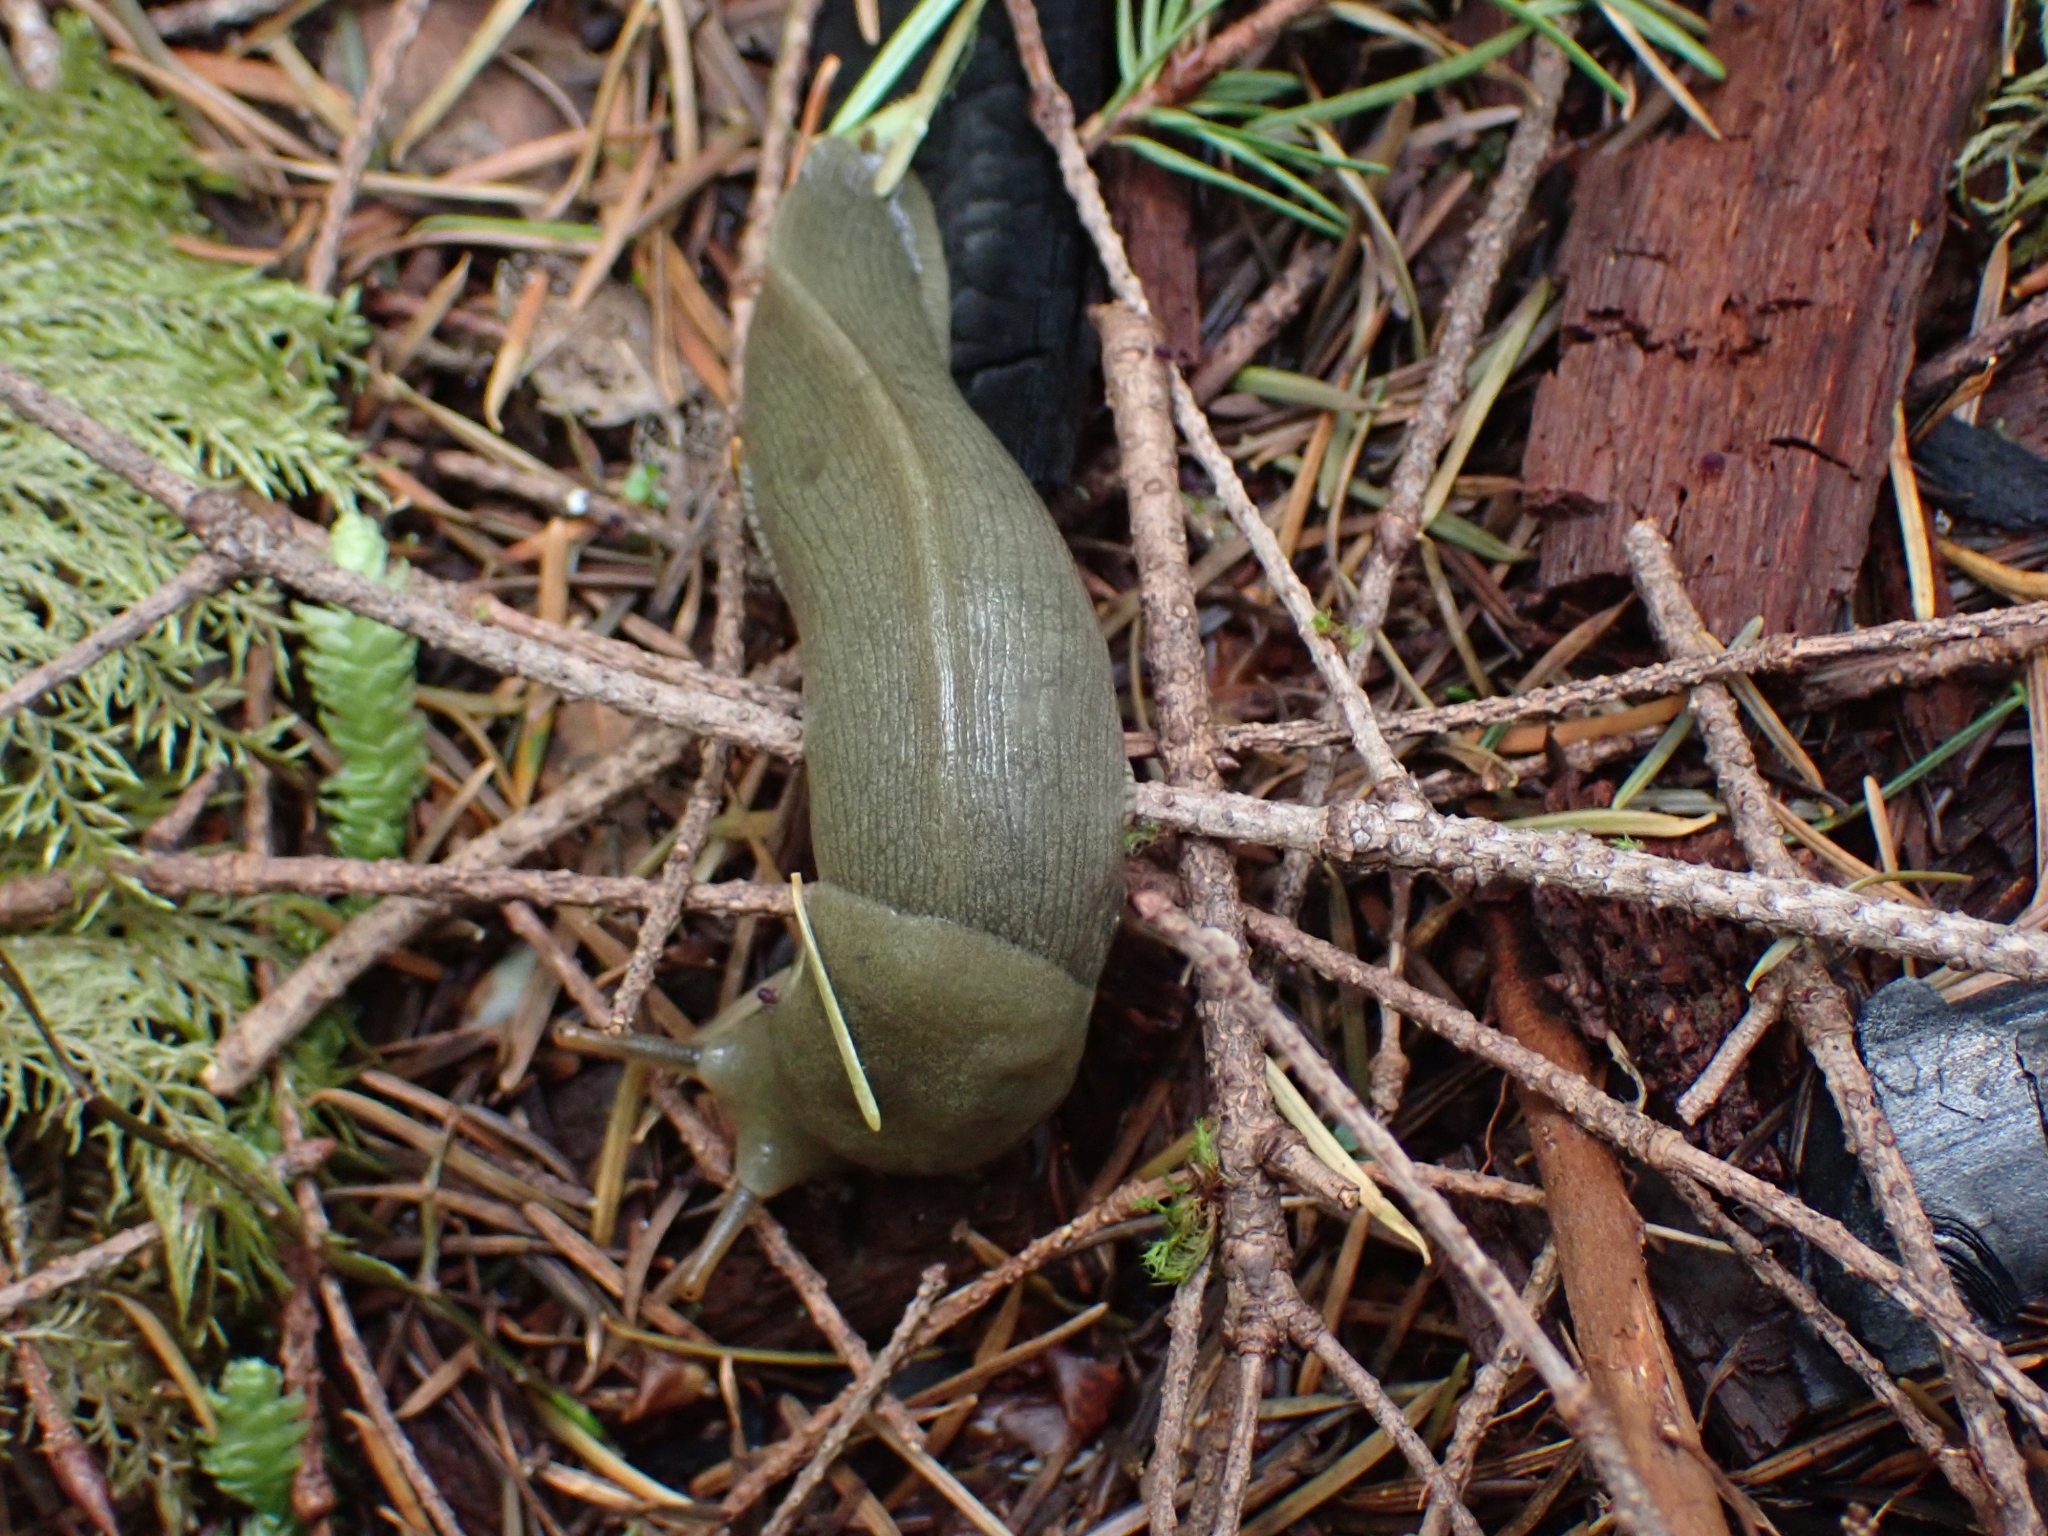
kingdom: Animalia
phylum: Mollusca
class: Gastropoda
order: Stylommatophora
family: Ariolimacidae
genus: Ariolimax
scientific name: Ariolimax columbianus
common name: Pacific banana slug
